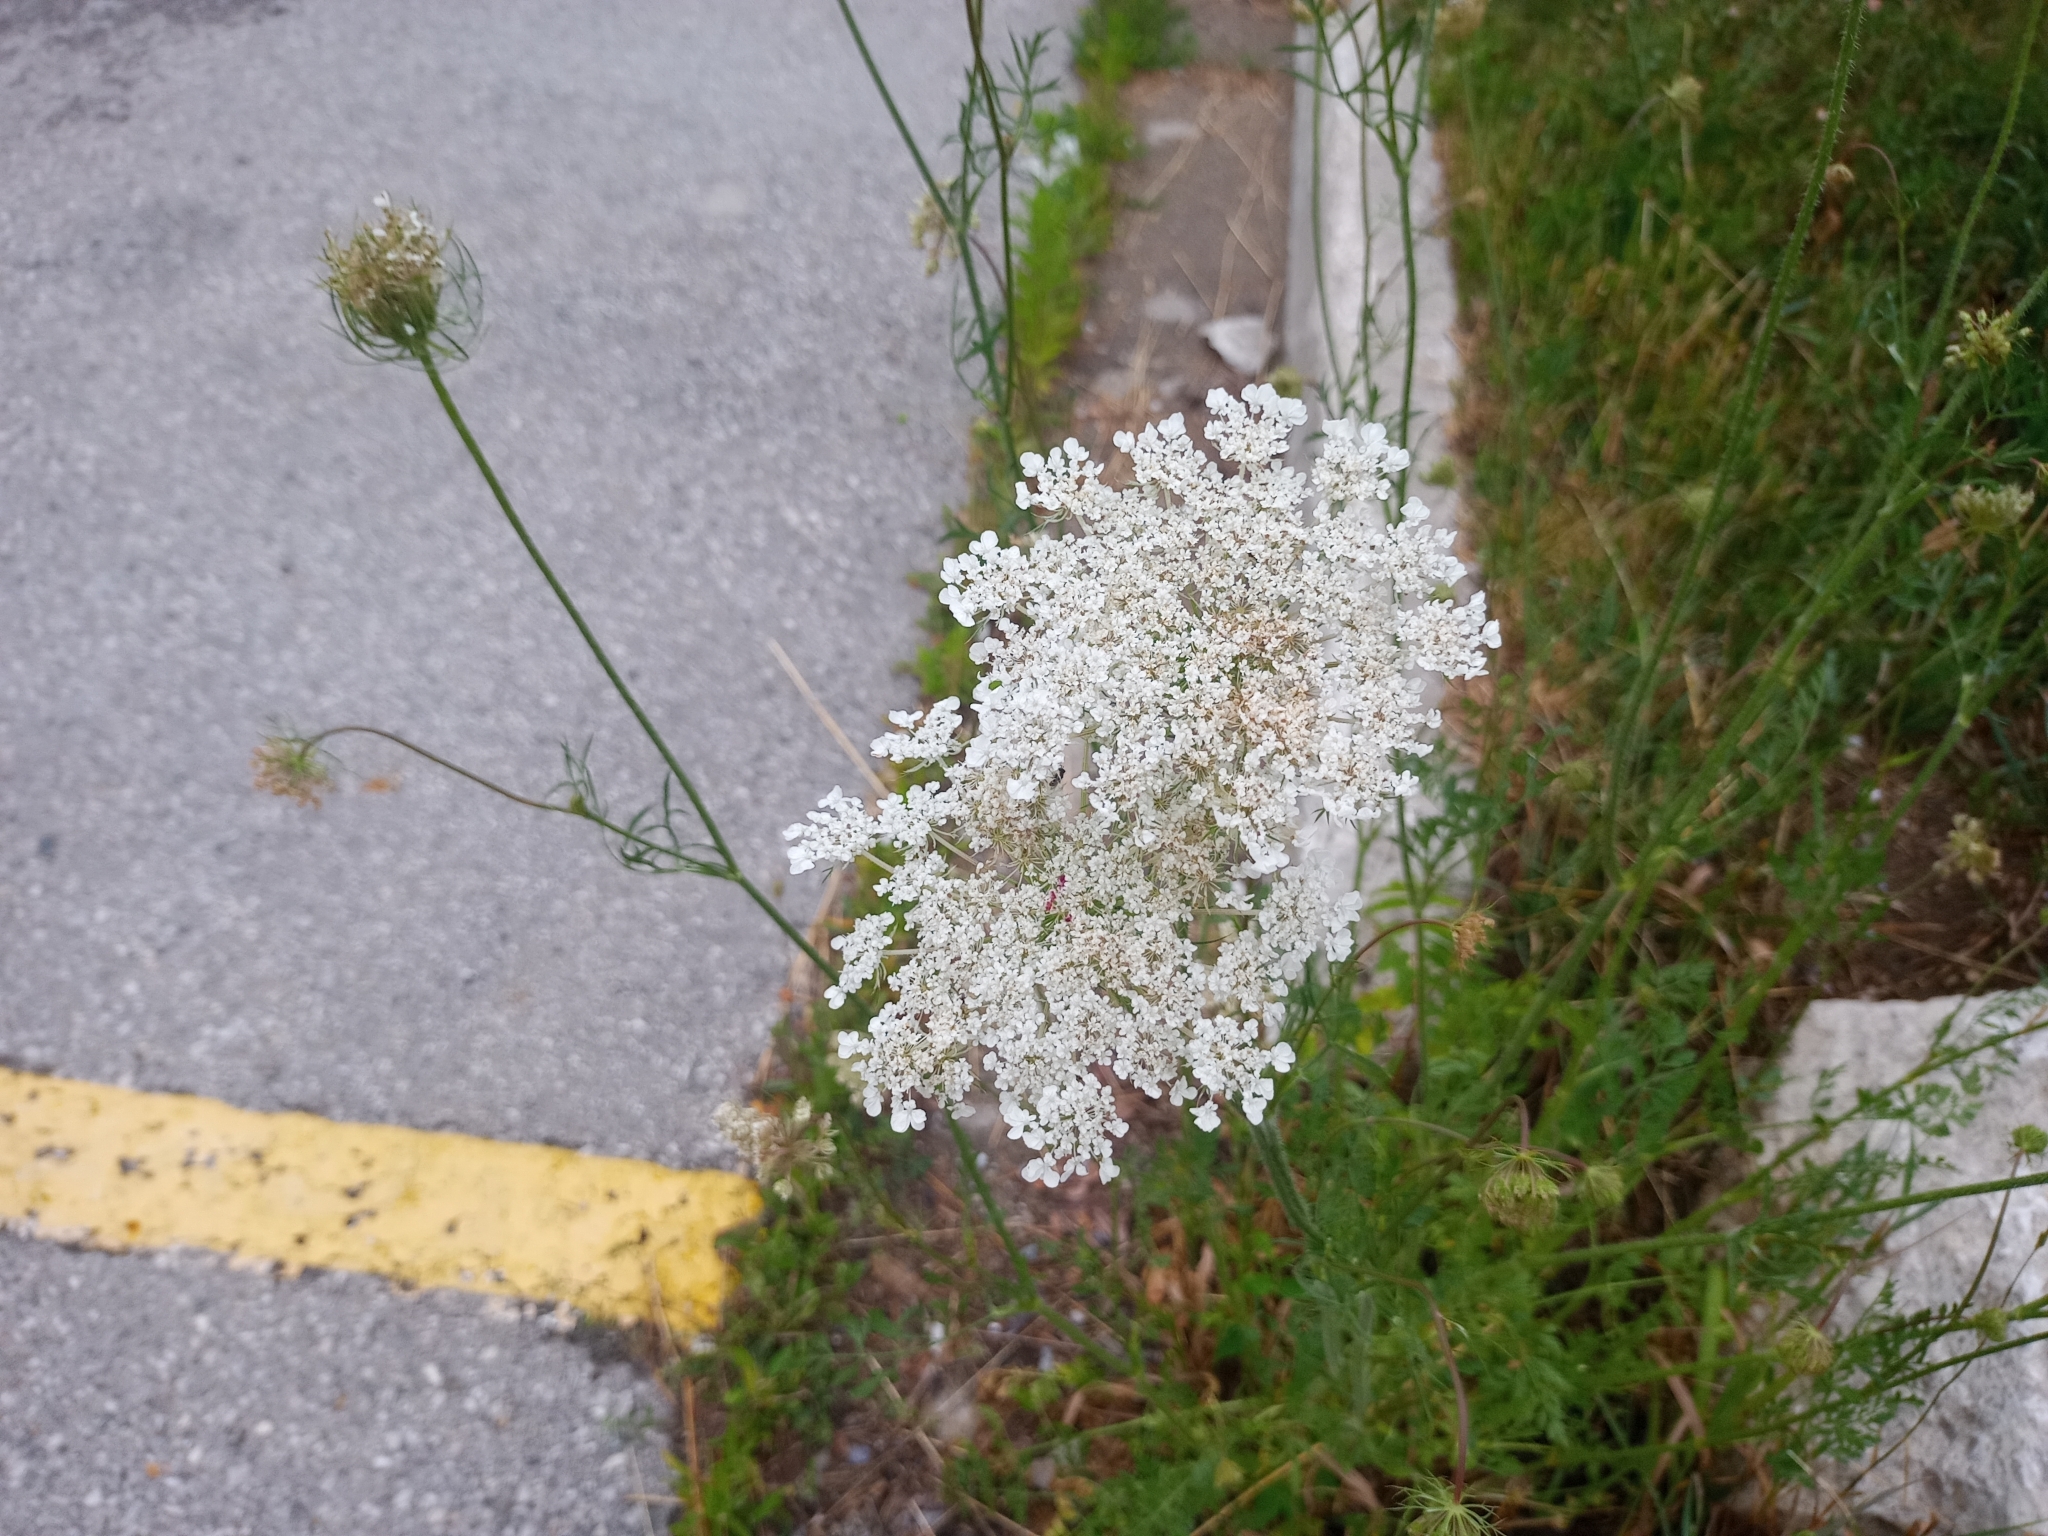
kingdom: Plantae
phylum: Tracheophyta
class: Magnoliopsida
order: Apiales
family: Apiaceae
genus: Daucus
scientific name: Daucus carota
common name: Wild carrot
